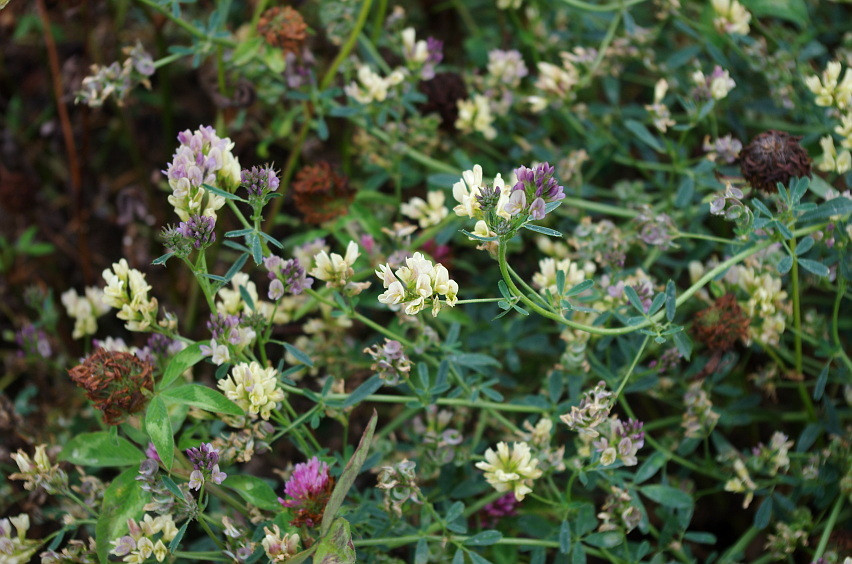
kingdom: Plantae
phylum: Tracheophyta
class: Magnoliopsida
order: Fabales
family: Fabaceae
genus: Medicago
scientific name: Medicago sativa
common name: Alfalfa
